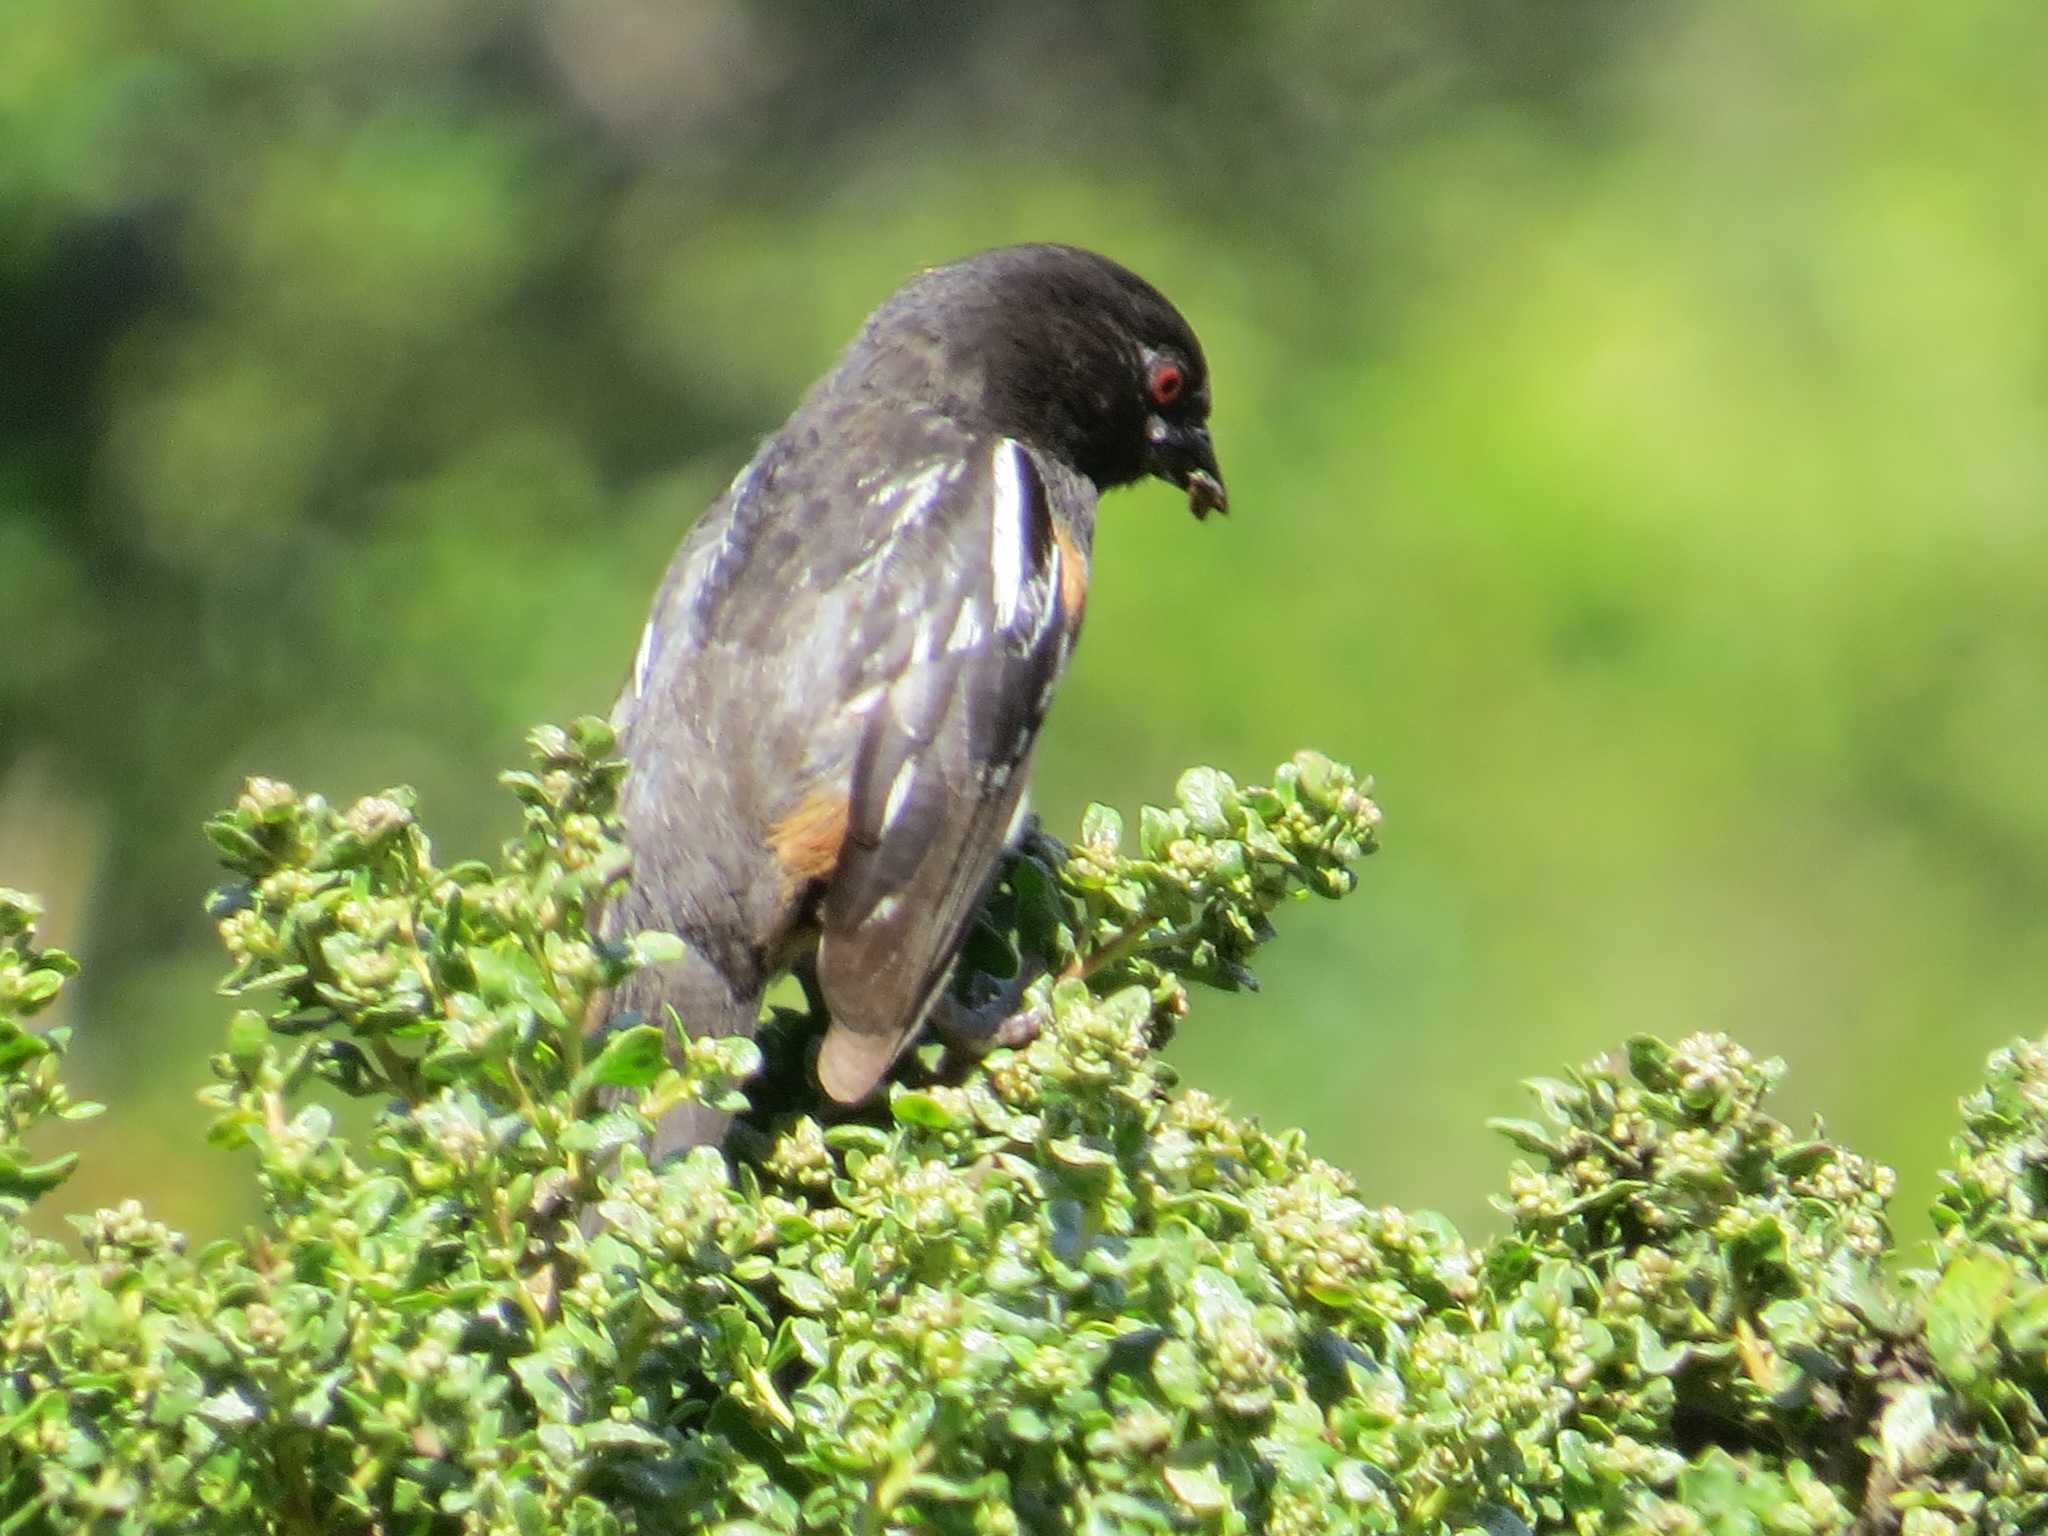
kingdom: Animalia
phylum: Chordata
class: Aves
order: Passeriformes
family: Passerellidae
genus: Pipilo
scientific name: Pipilo maculatus
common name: Spotted towhee
